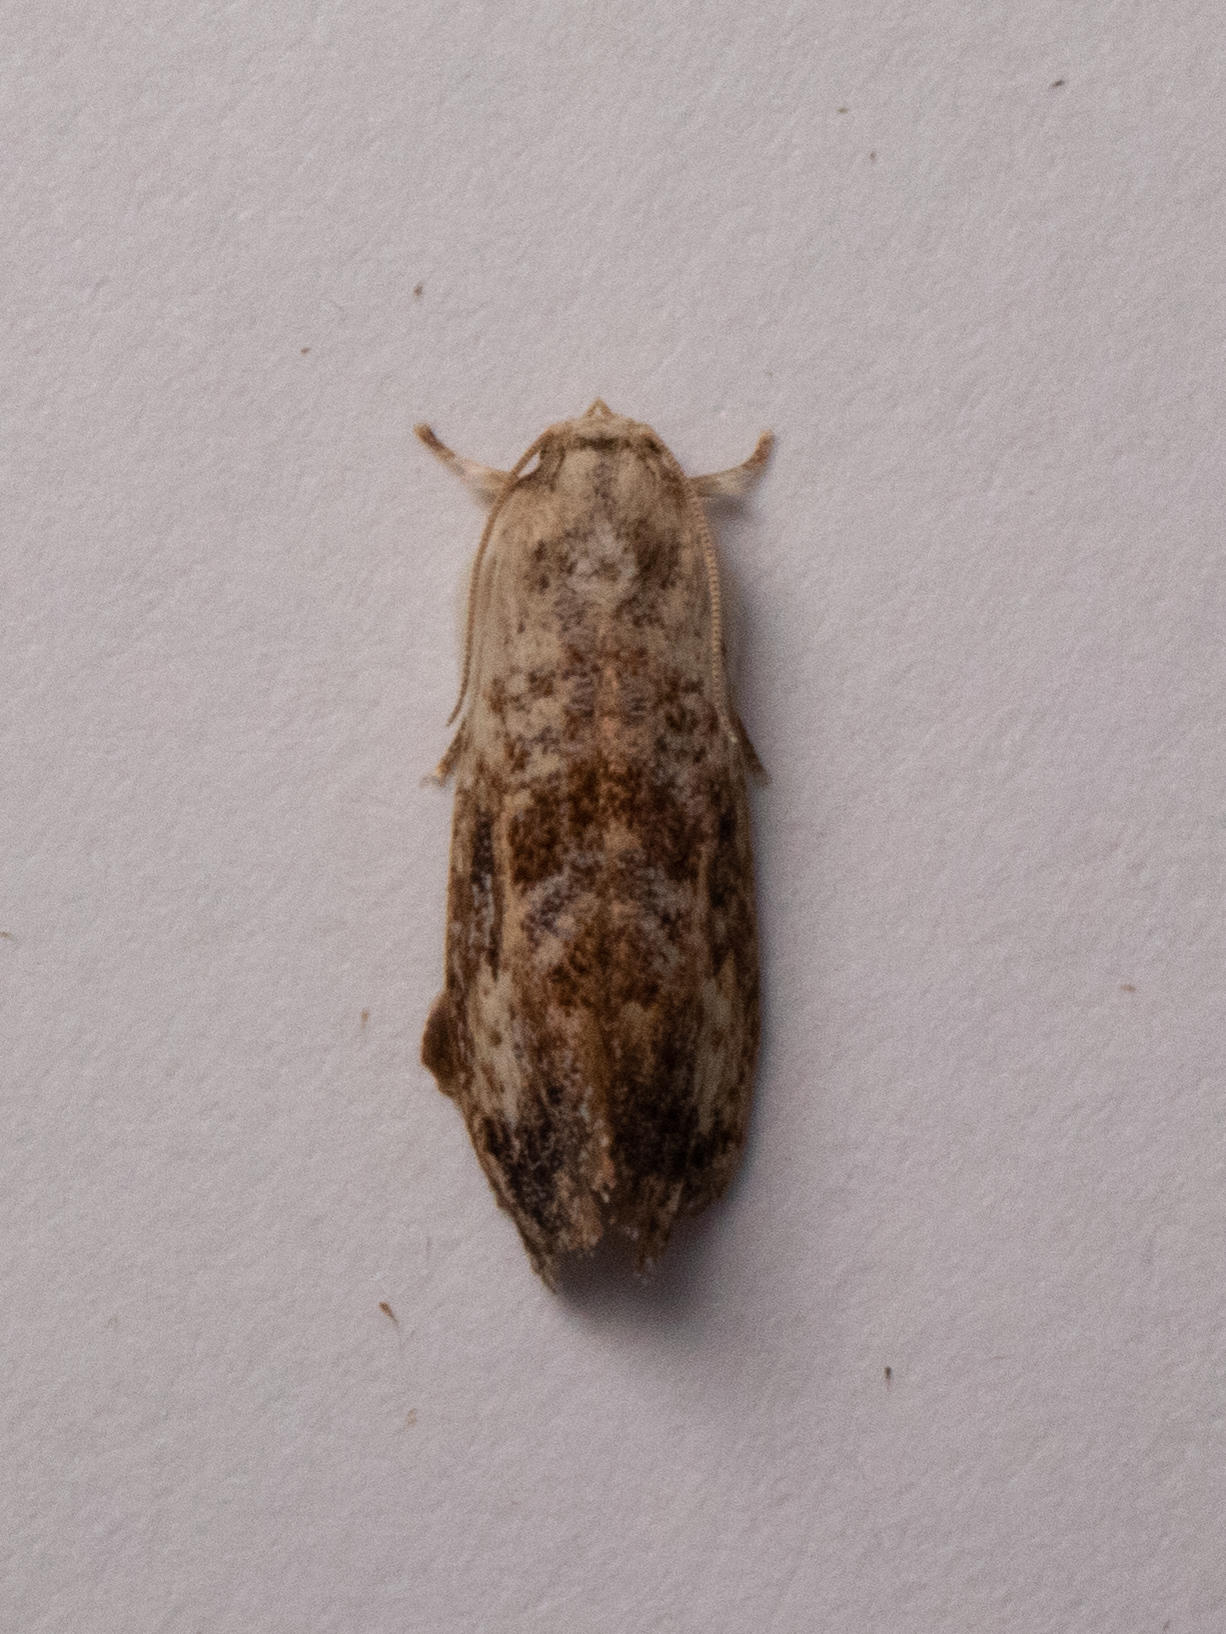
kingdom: Animalia
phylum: Arthropoda
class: Insecta
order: Lepidoptera
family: Tineidae
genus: Acrolophus
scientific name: Acrolophus mycetophagus
